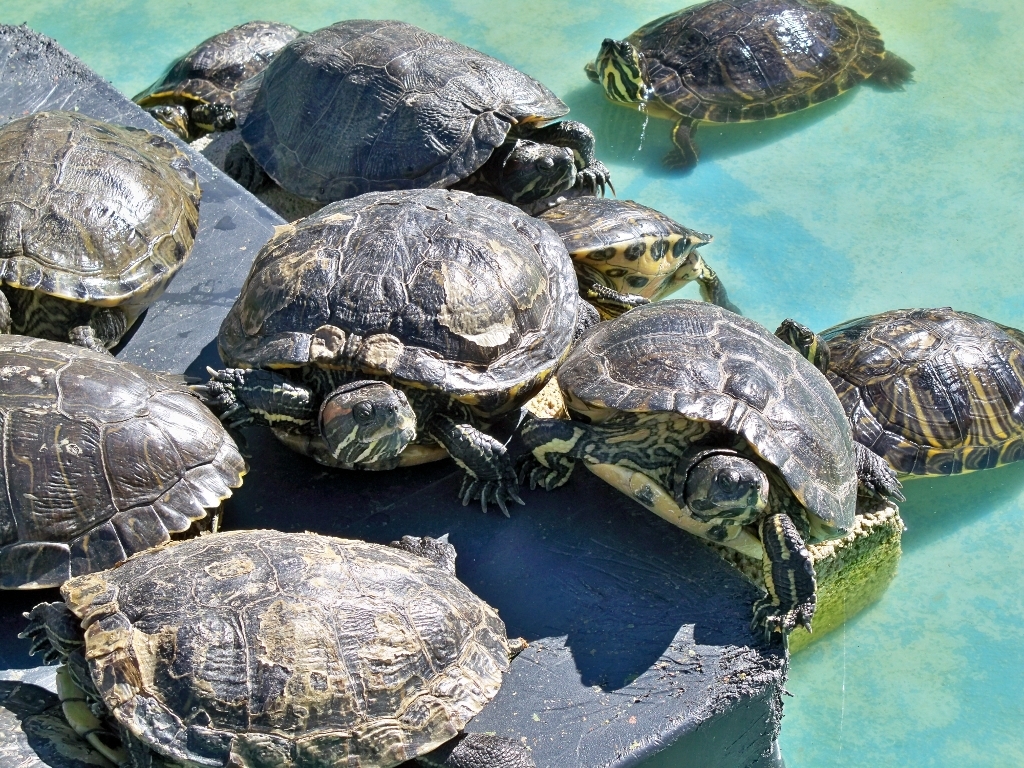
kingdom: Animalia
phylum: Chordata
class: Testudines
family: Emydidae
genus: Trachemys
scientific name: Trachemys scripta
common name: Slider
